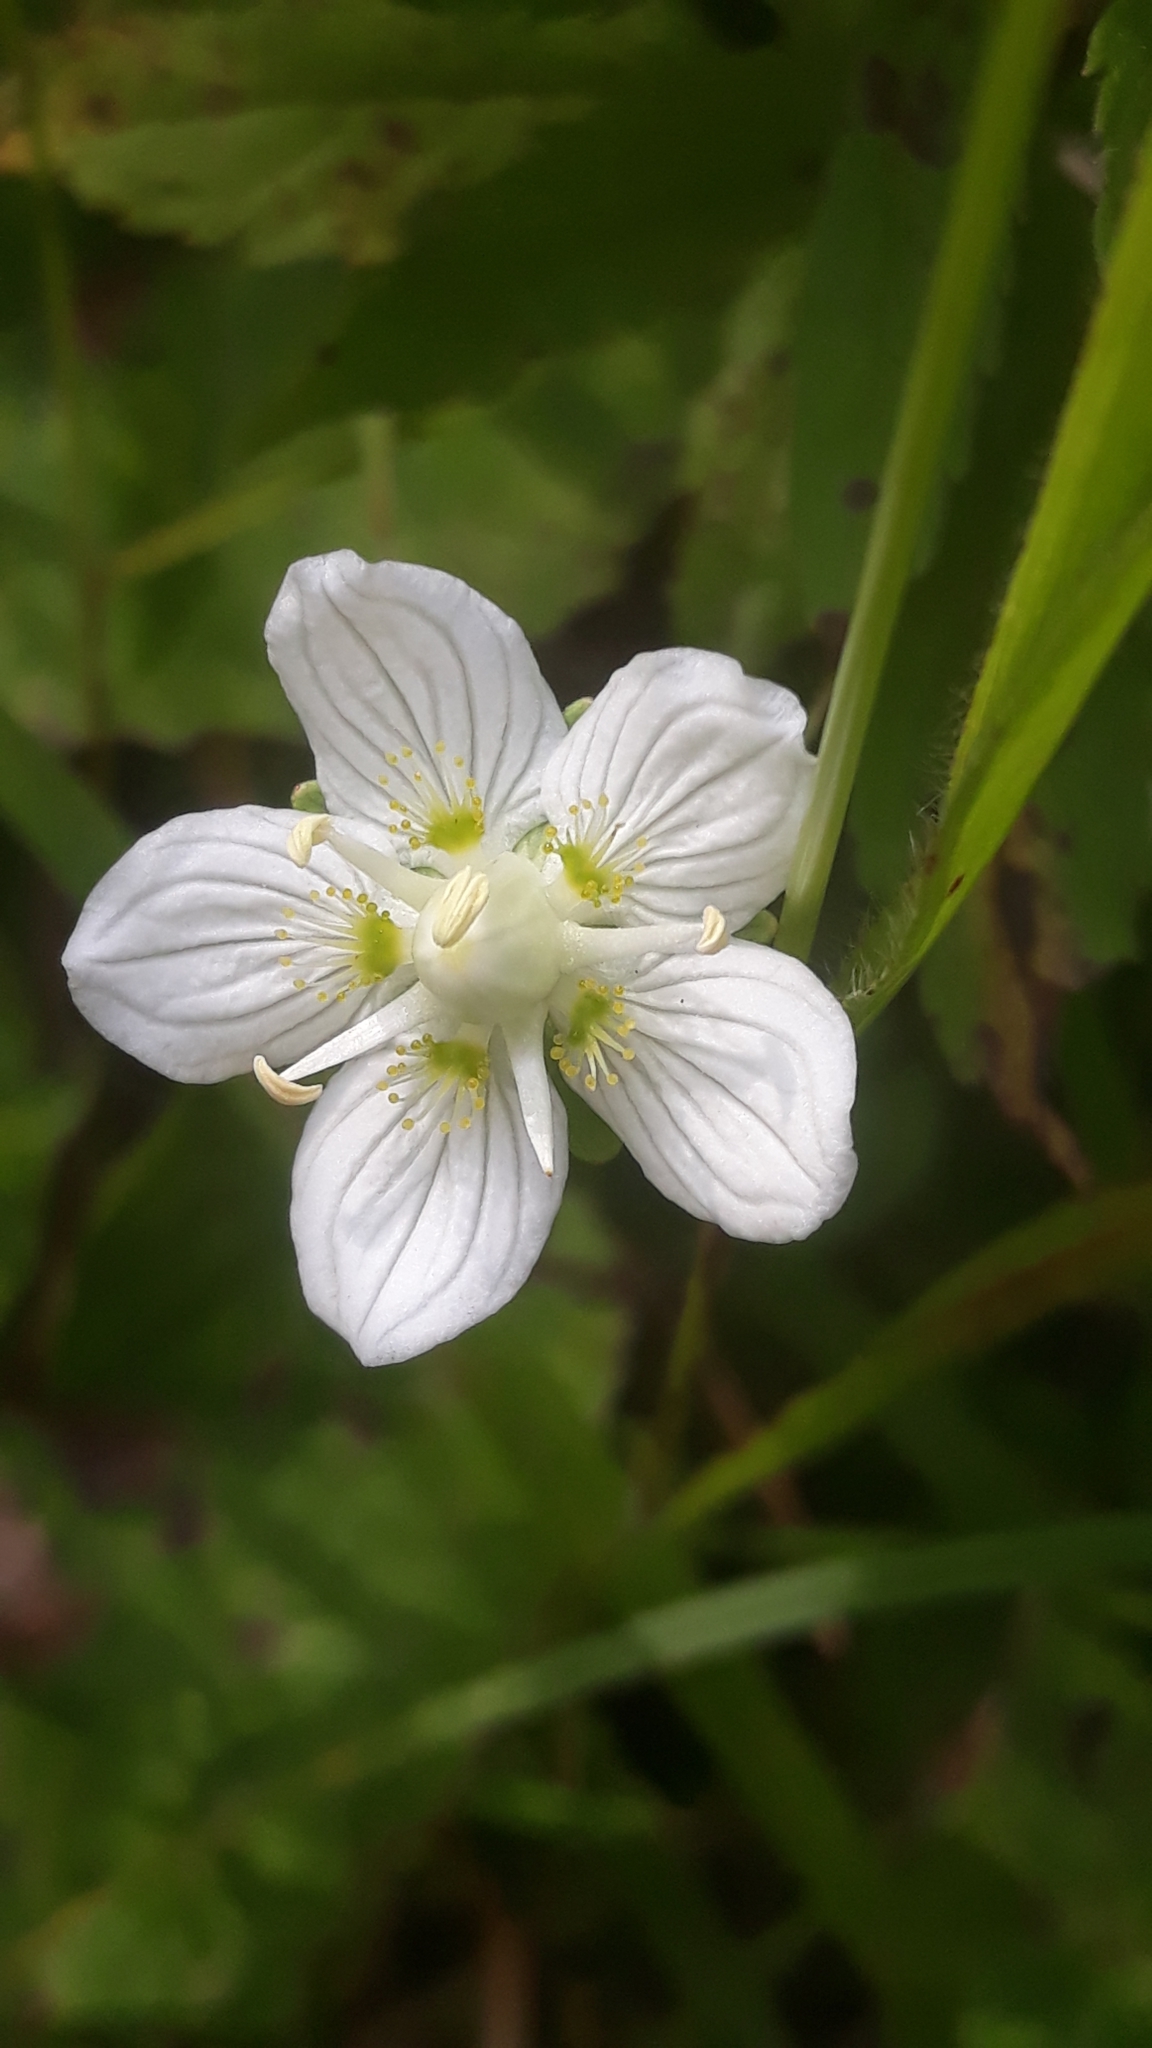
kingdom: Plantae
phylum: Tracheophyta
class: Magnoliopsida
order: Celastrales
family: Parnassiaceae
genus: Parnassia
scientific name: Parnassia palustris
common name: Grass-of-parnassus
